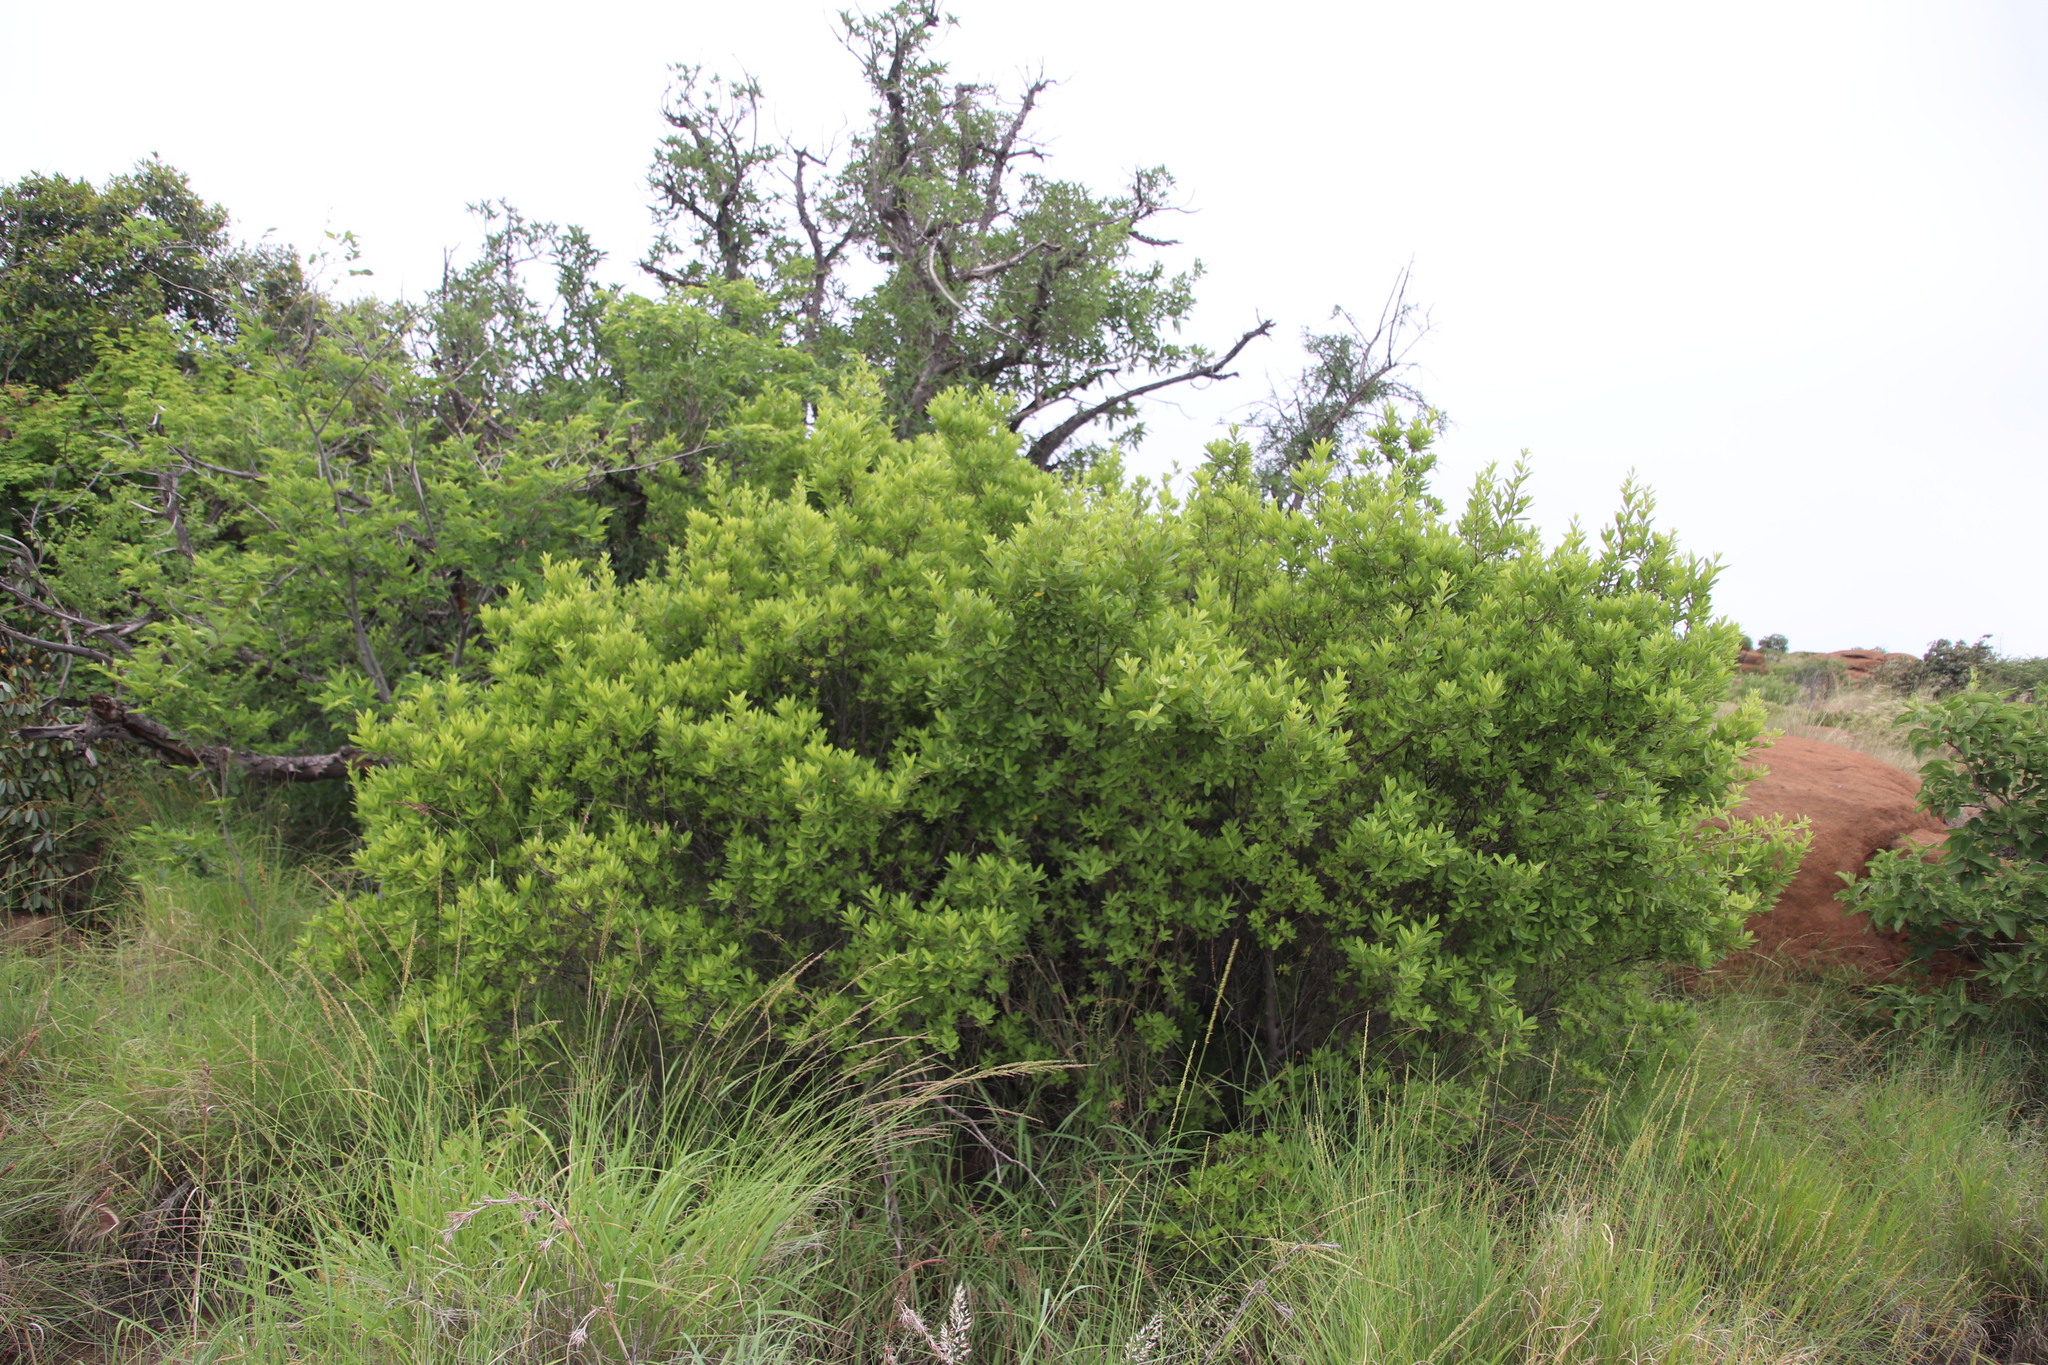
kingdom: Plantae
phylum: Tracheophyta
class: Magnoliopsida
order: Ericales
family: Ebenaceae
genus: Diospyros
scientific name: Diospyros lycioides
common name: Red star apple
